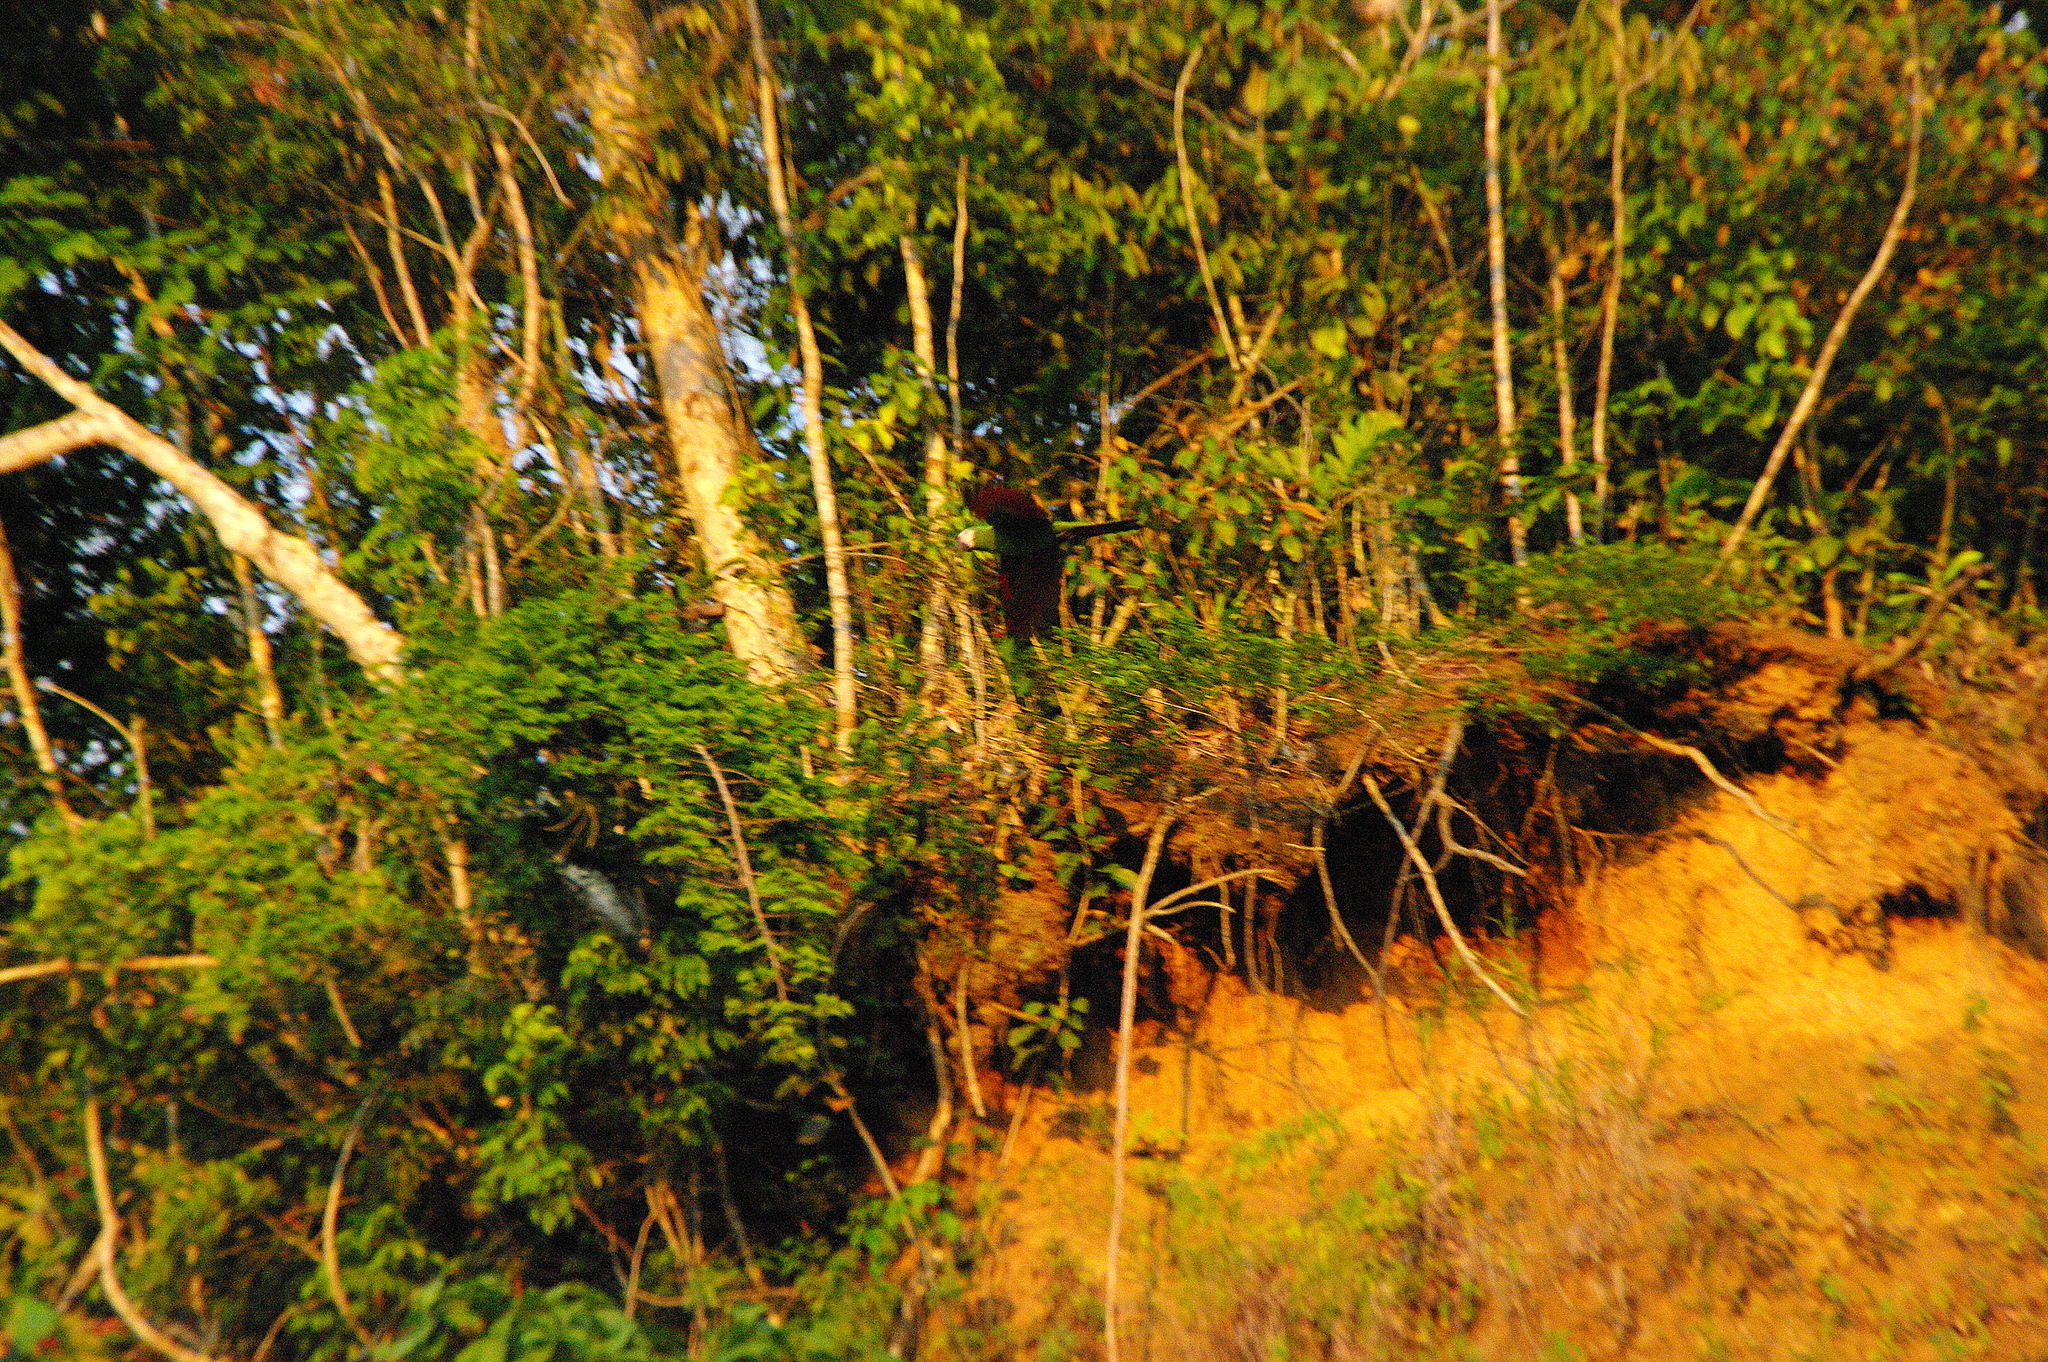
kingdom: Animalia
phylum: Chordata
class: Aves
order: Psittaciformes
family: Psittacidae
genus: Ara
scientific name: Ara severus
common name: Chestnut-fronted macaw
